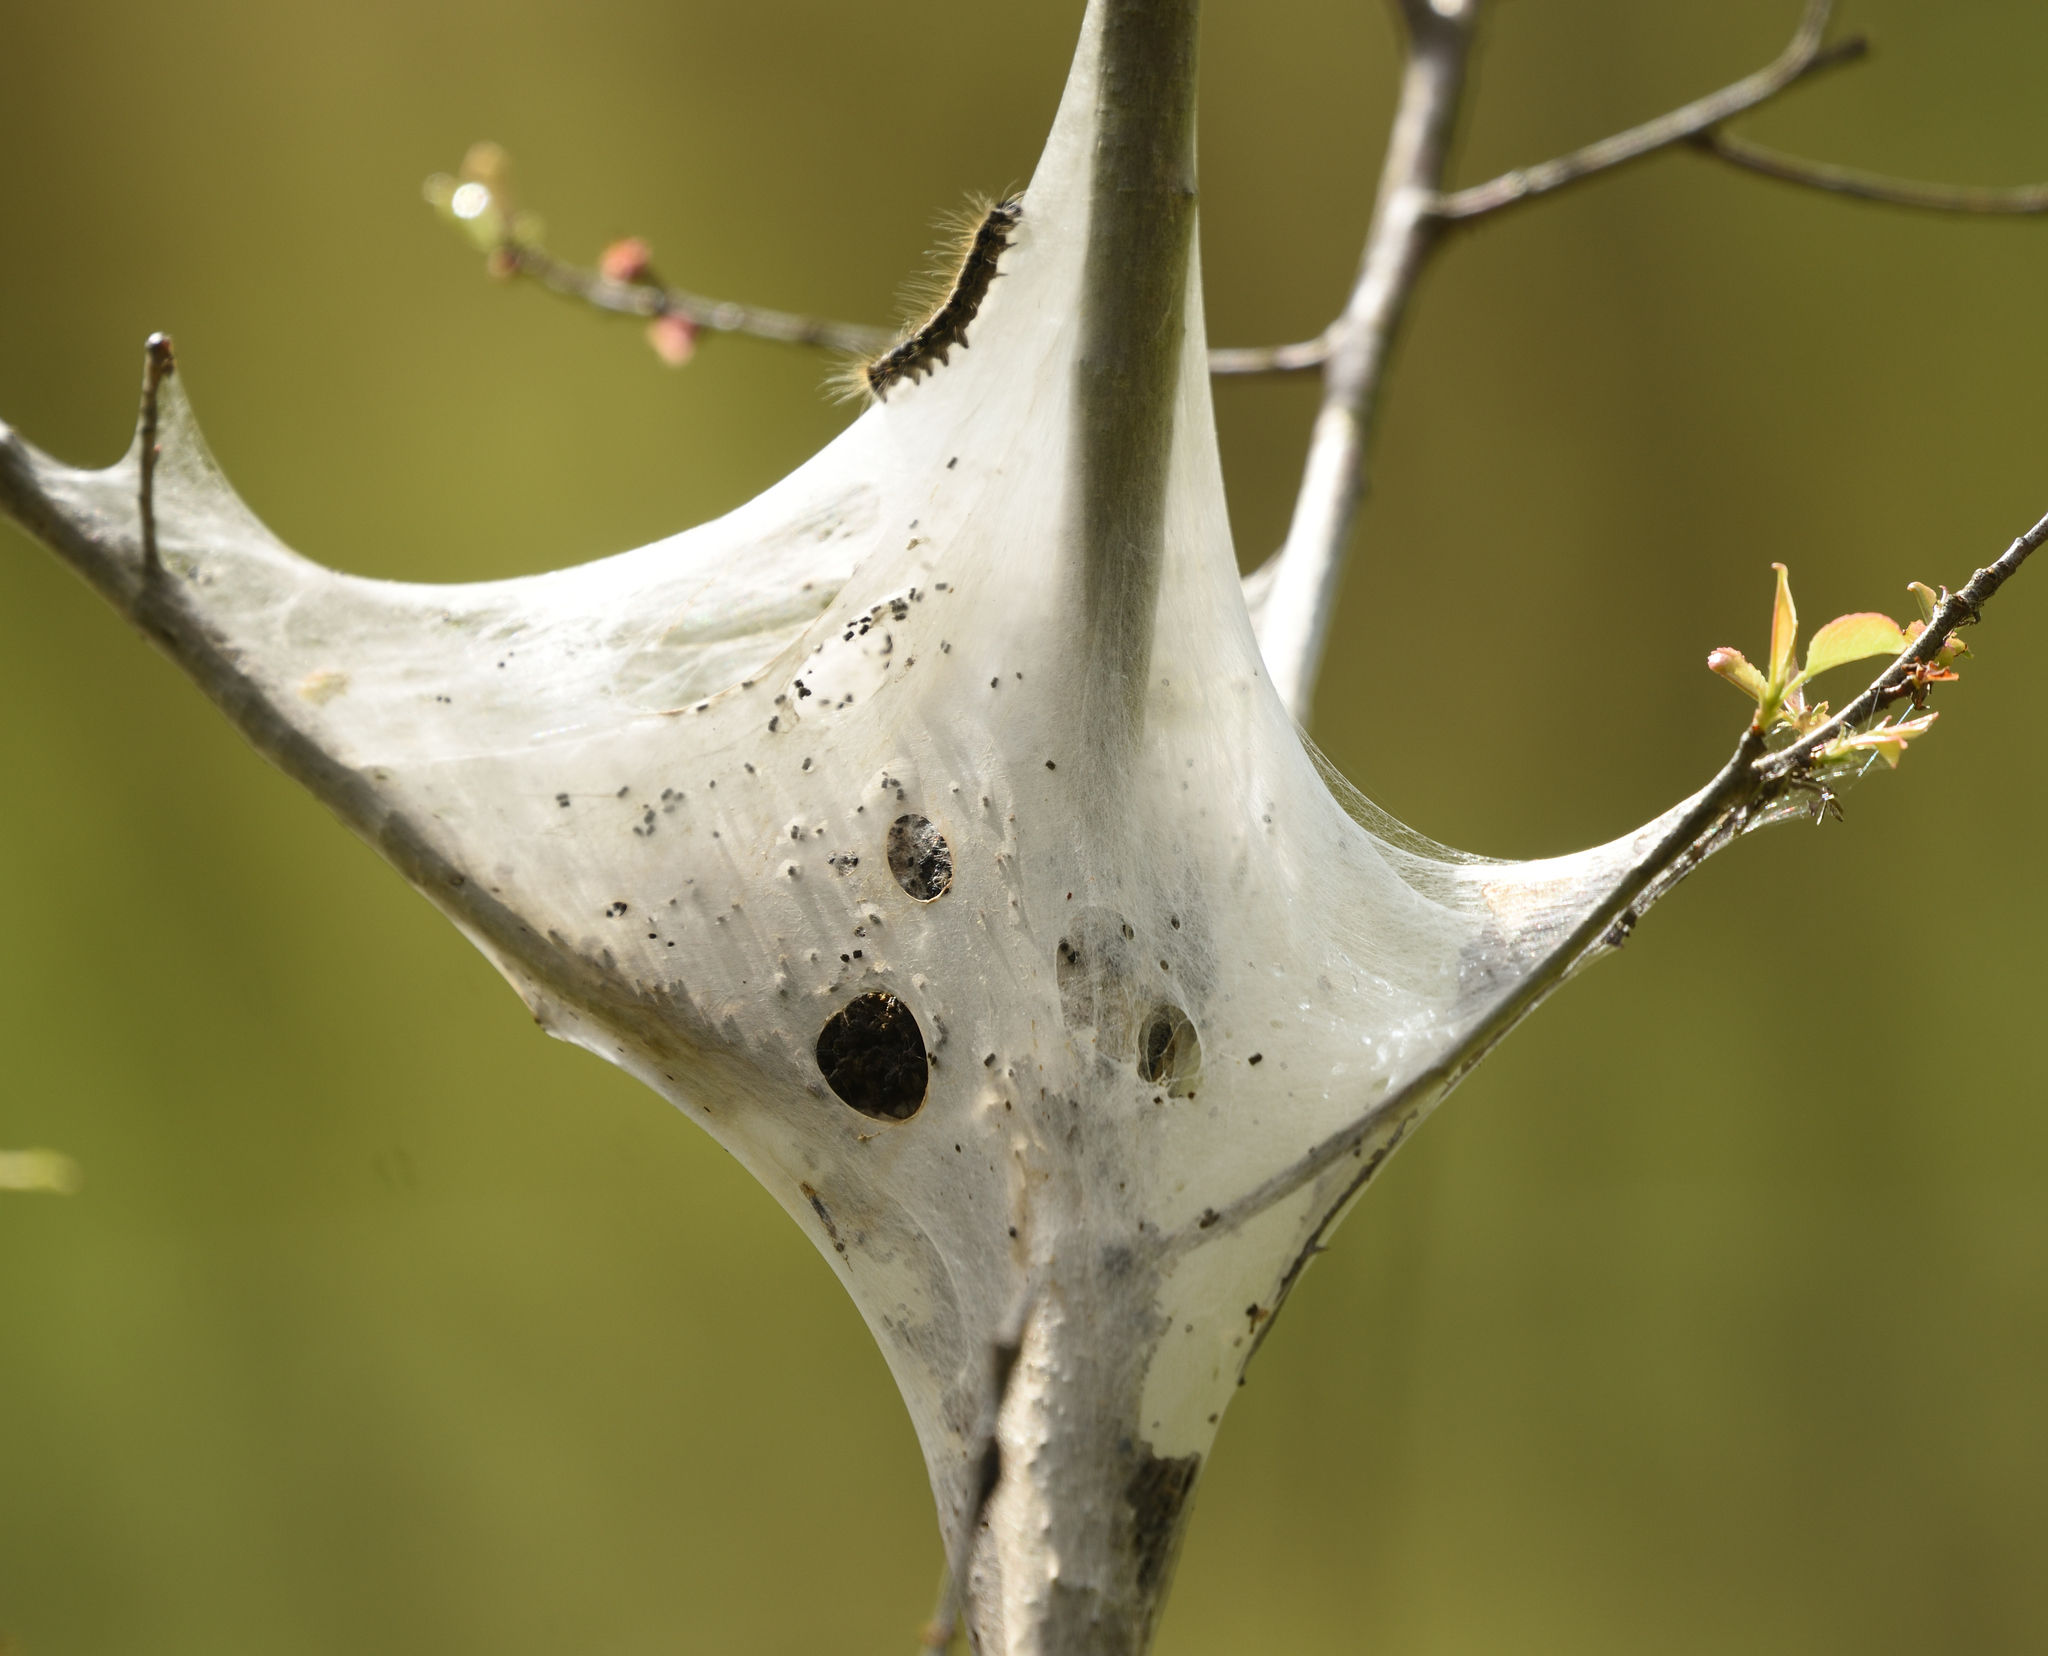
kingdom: Animalia
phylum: Arthropoda
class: Insecta
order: Lepidoptera
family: Lasiocampidae
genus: Malacosoma
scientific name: Malacosoma americana
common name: Eastern tent caterpillar moth
